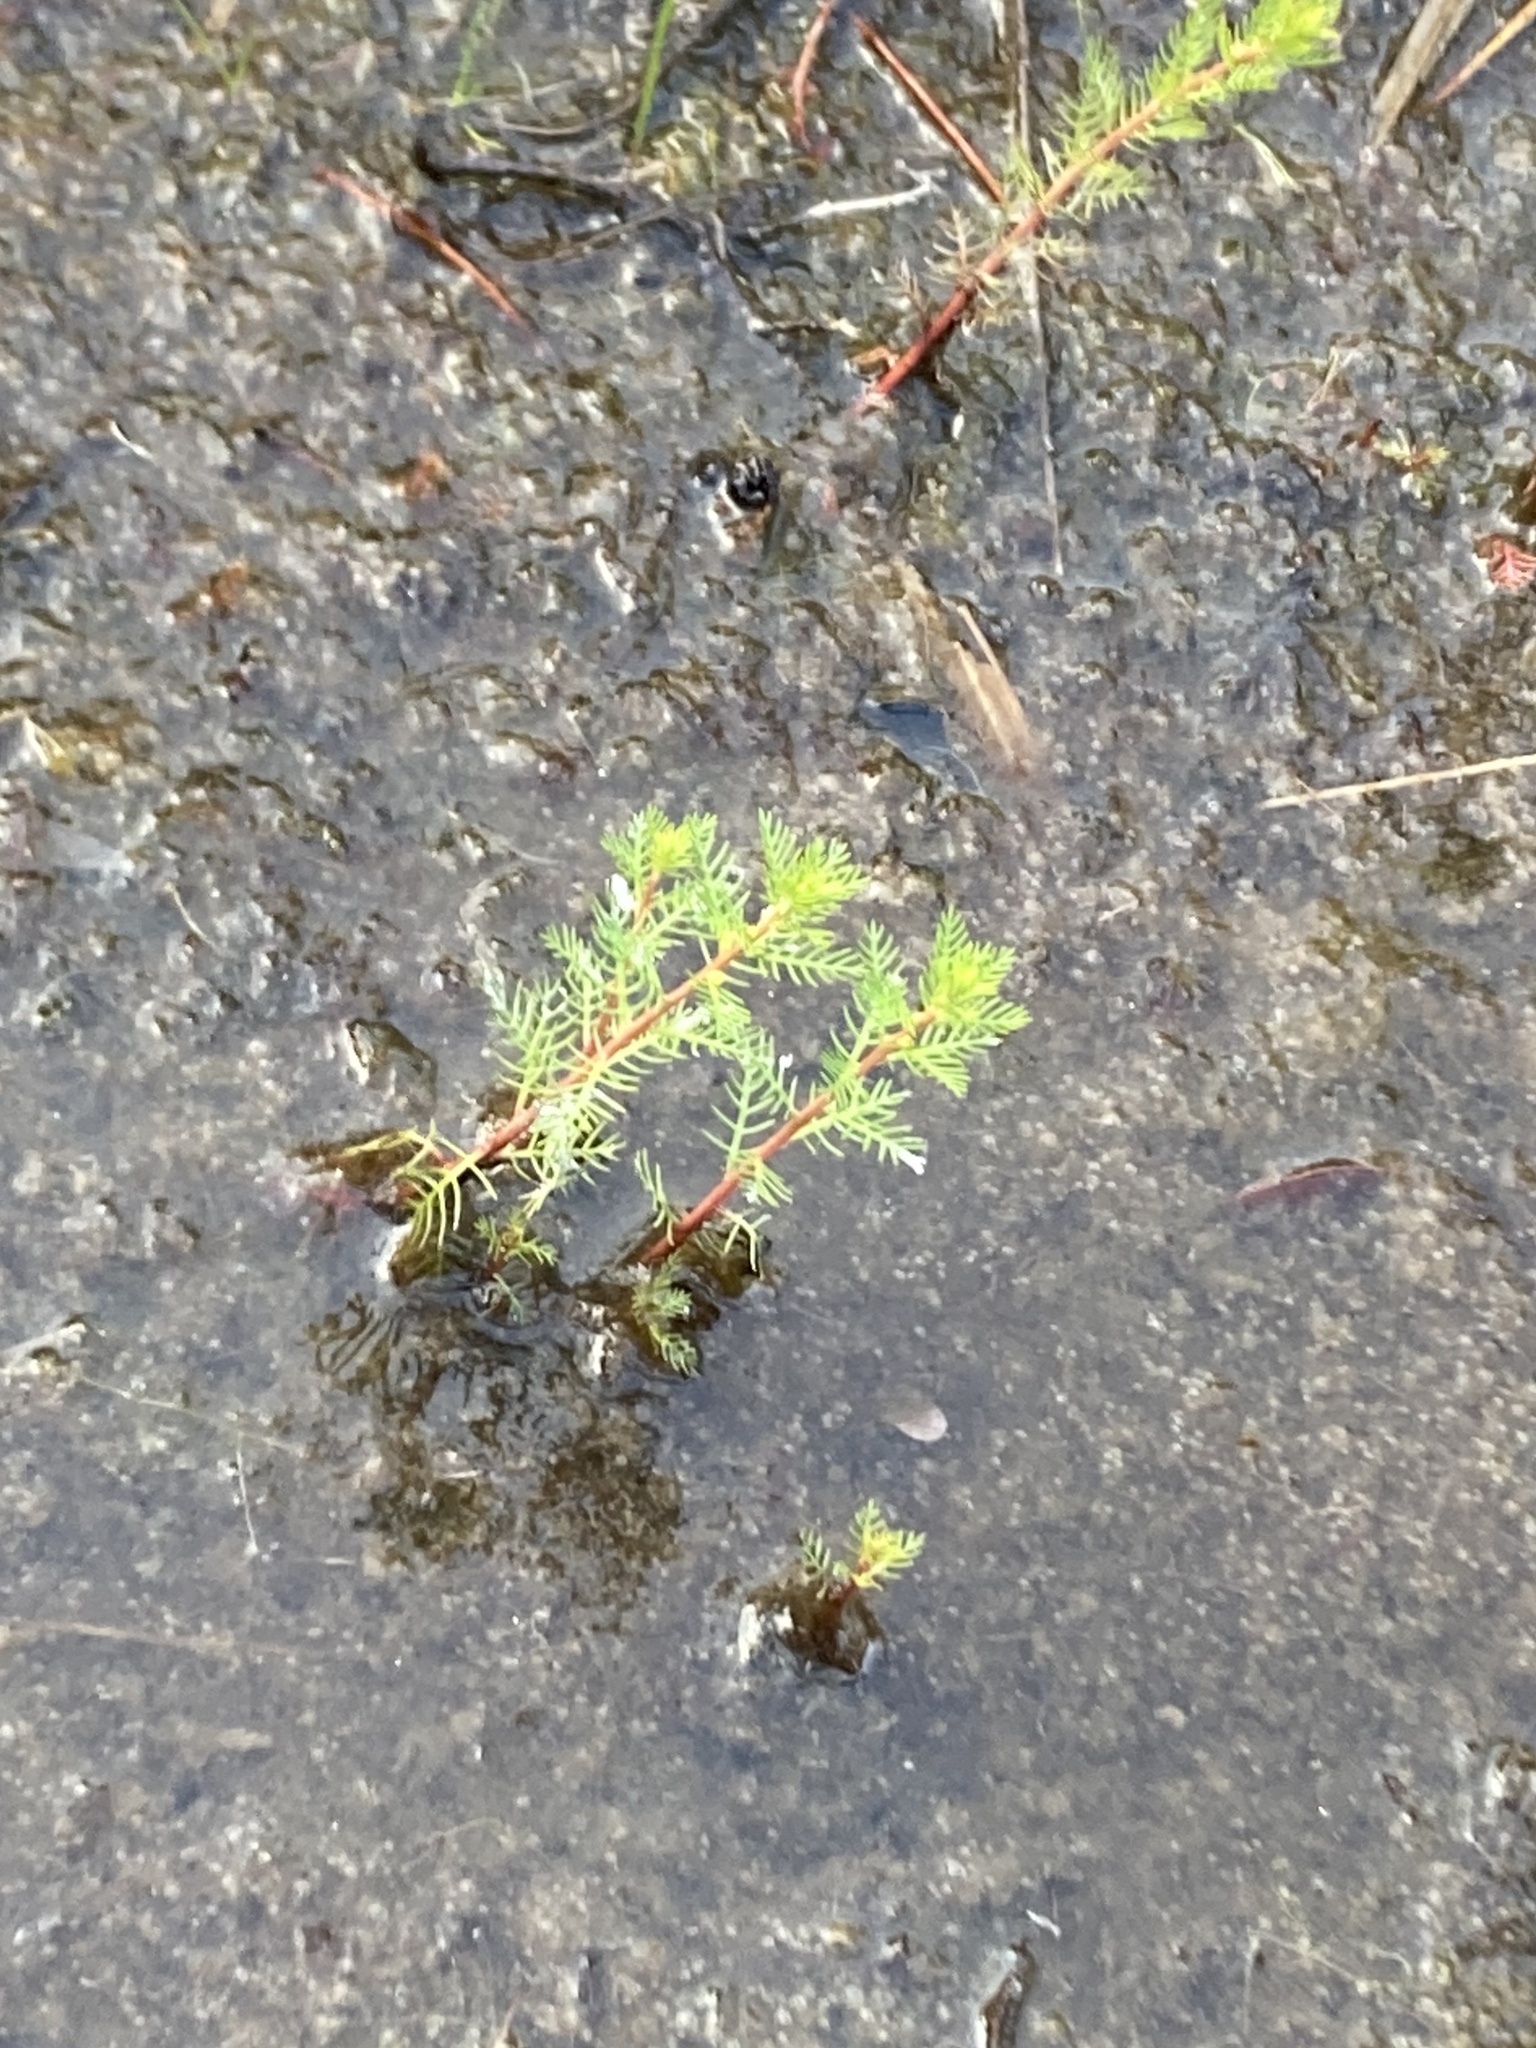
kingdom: Plantae
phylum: Tracheophyta
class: Magnoliopsida
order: Saxifragales
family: Haloragaceae
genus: Proserpinaca
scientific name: Proserpinaca pectinata
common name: Comb-leaved mermaidweed
